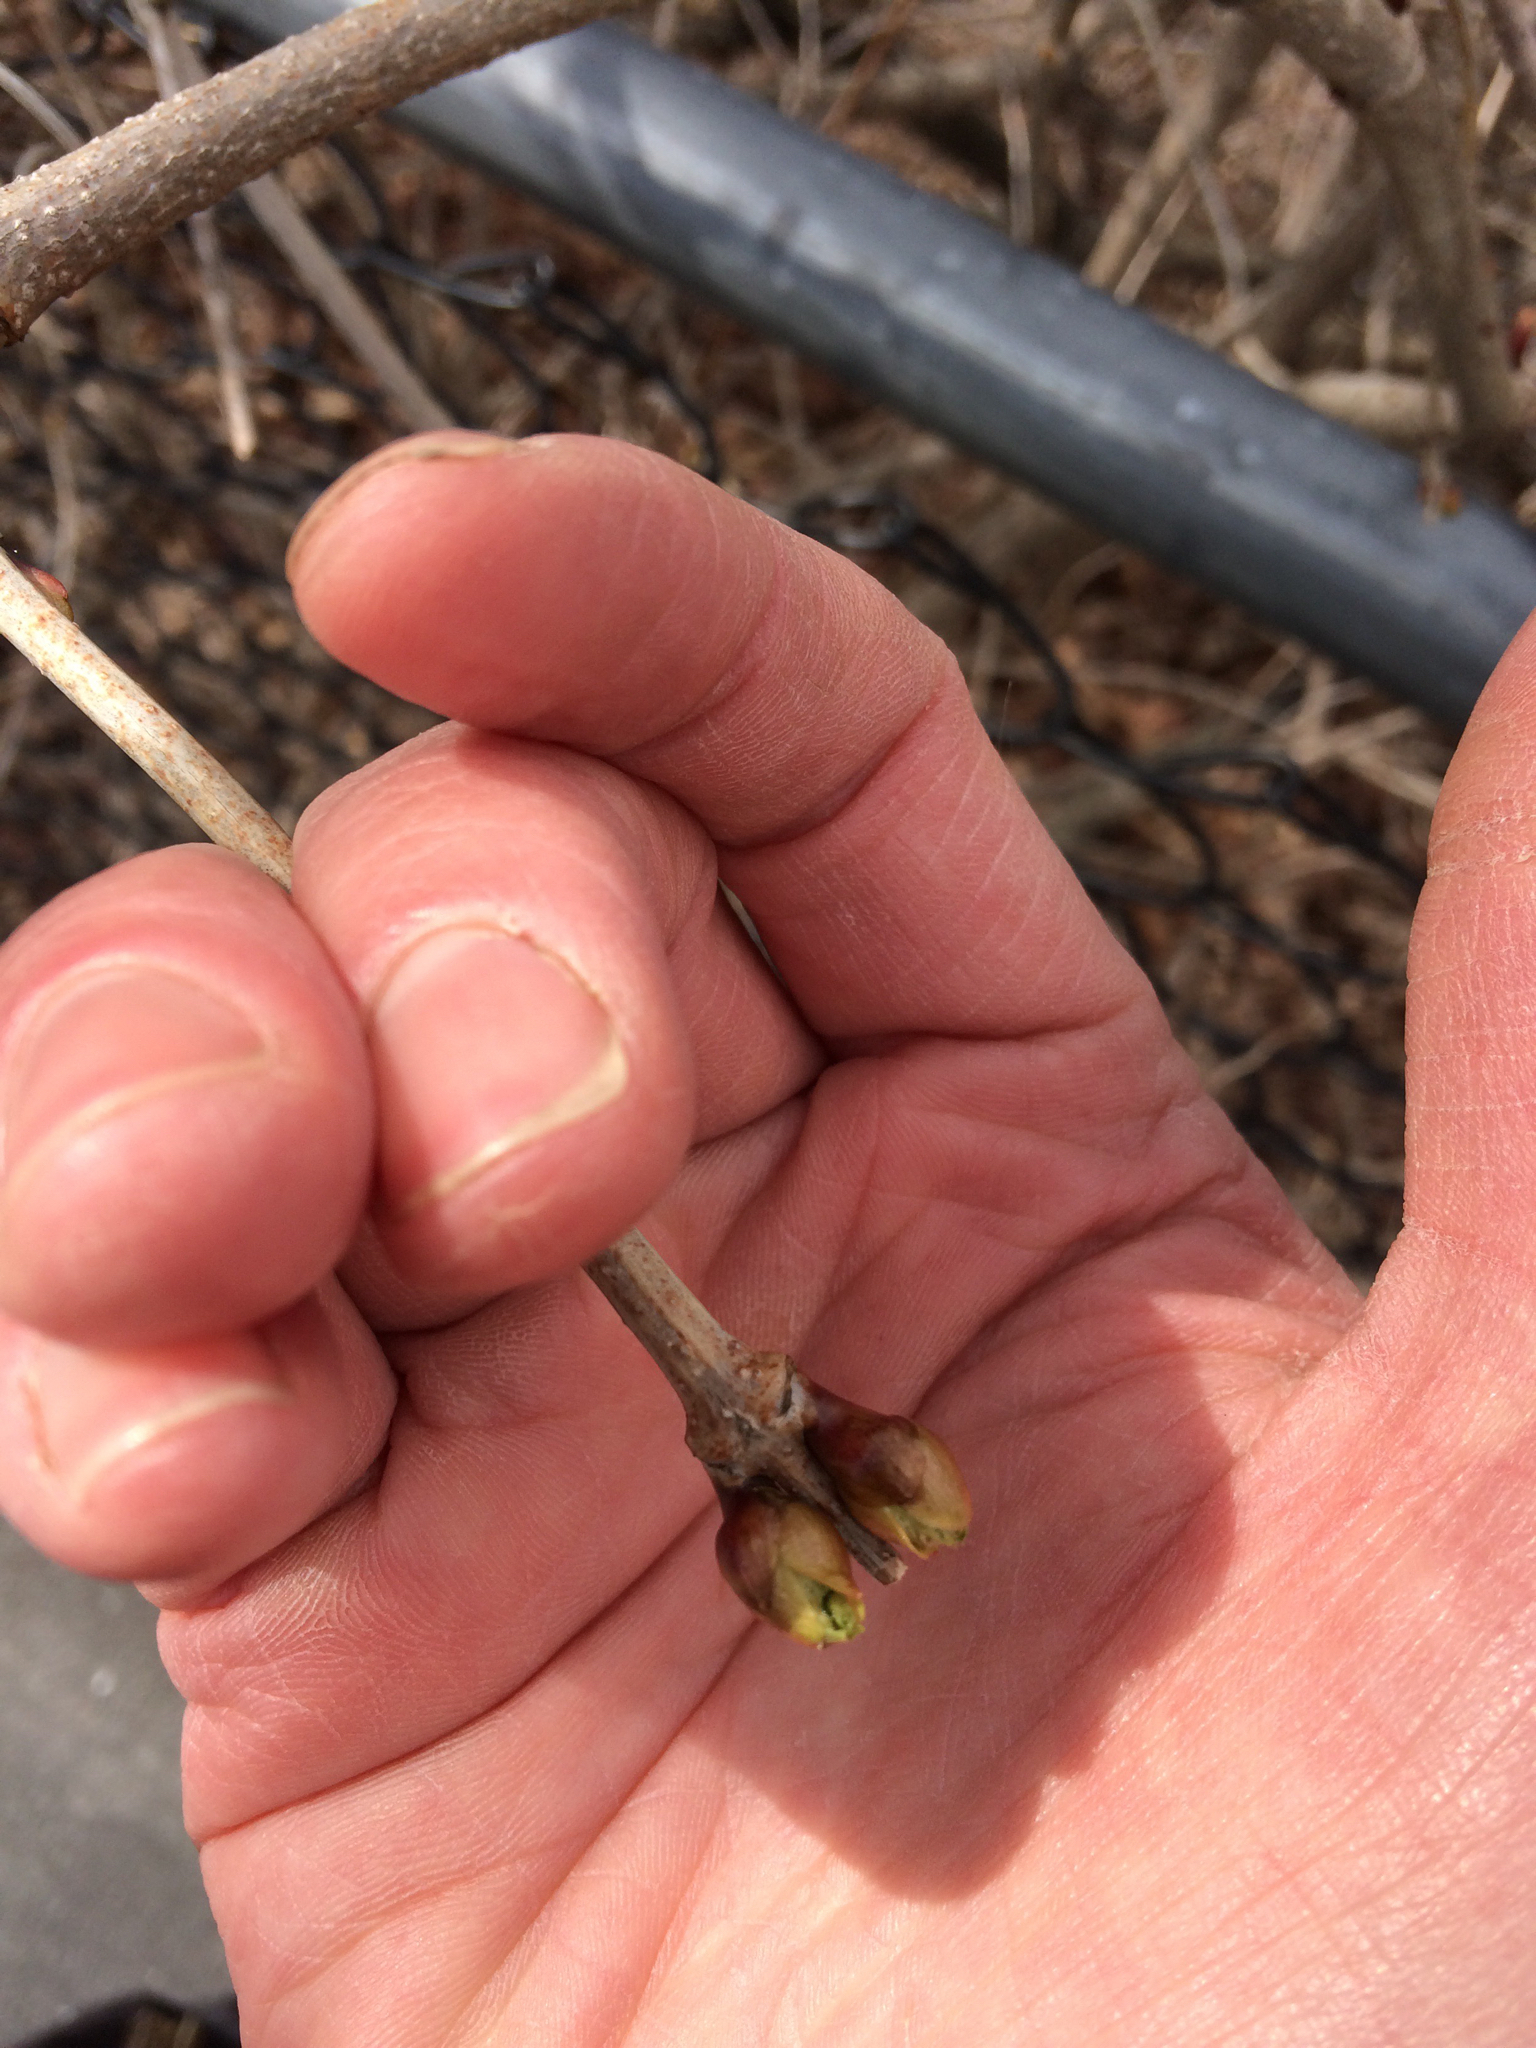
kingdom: Plantae
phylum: Tracheophyta
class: Magnoliopsida
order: Dipsacales
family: Viburnaceae
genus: Sambucus
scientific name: Sambucus racemosa
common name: Red-berried elder
